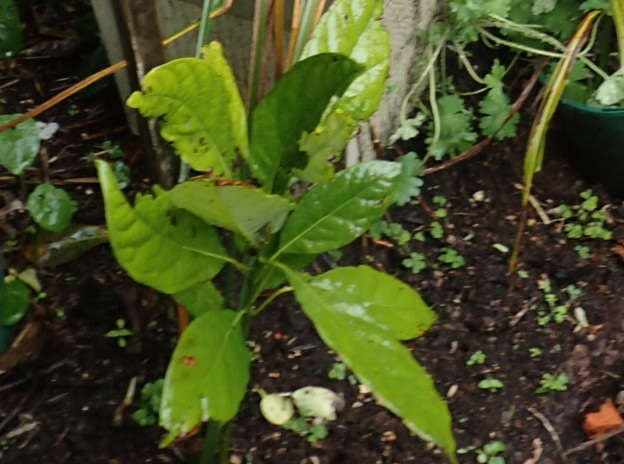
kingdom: Plantae
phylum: Tracheophyta
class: Magnoliopsida
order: Laurales
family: Lauraceae
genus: Persea
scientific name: Persea americana
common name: Avocado
